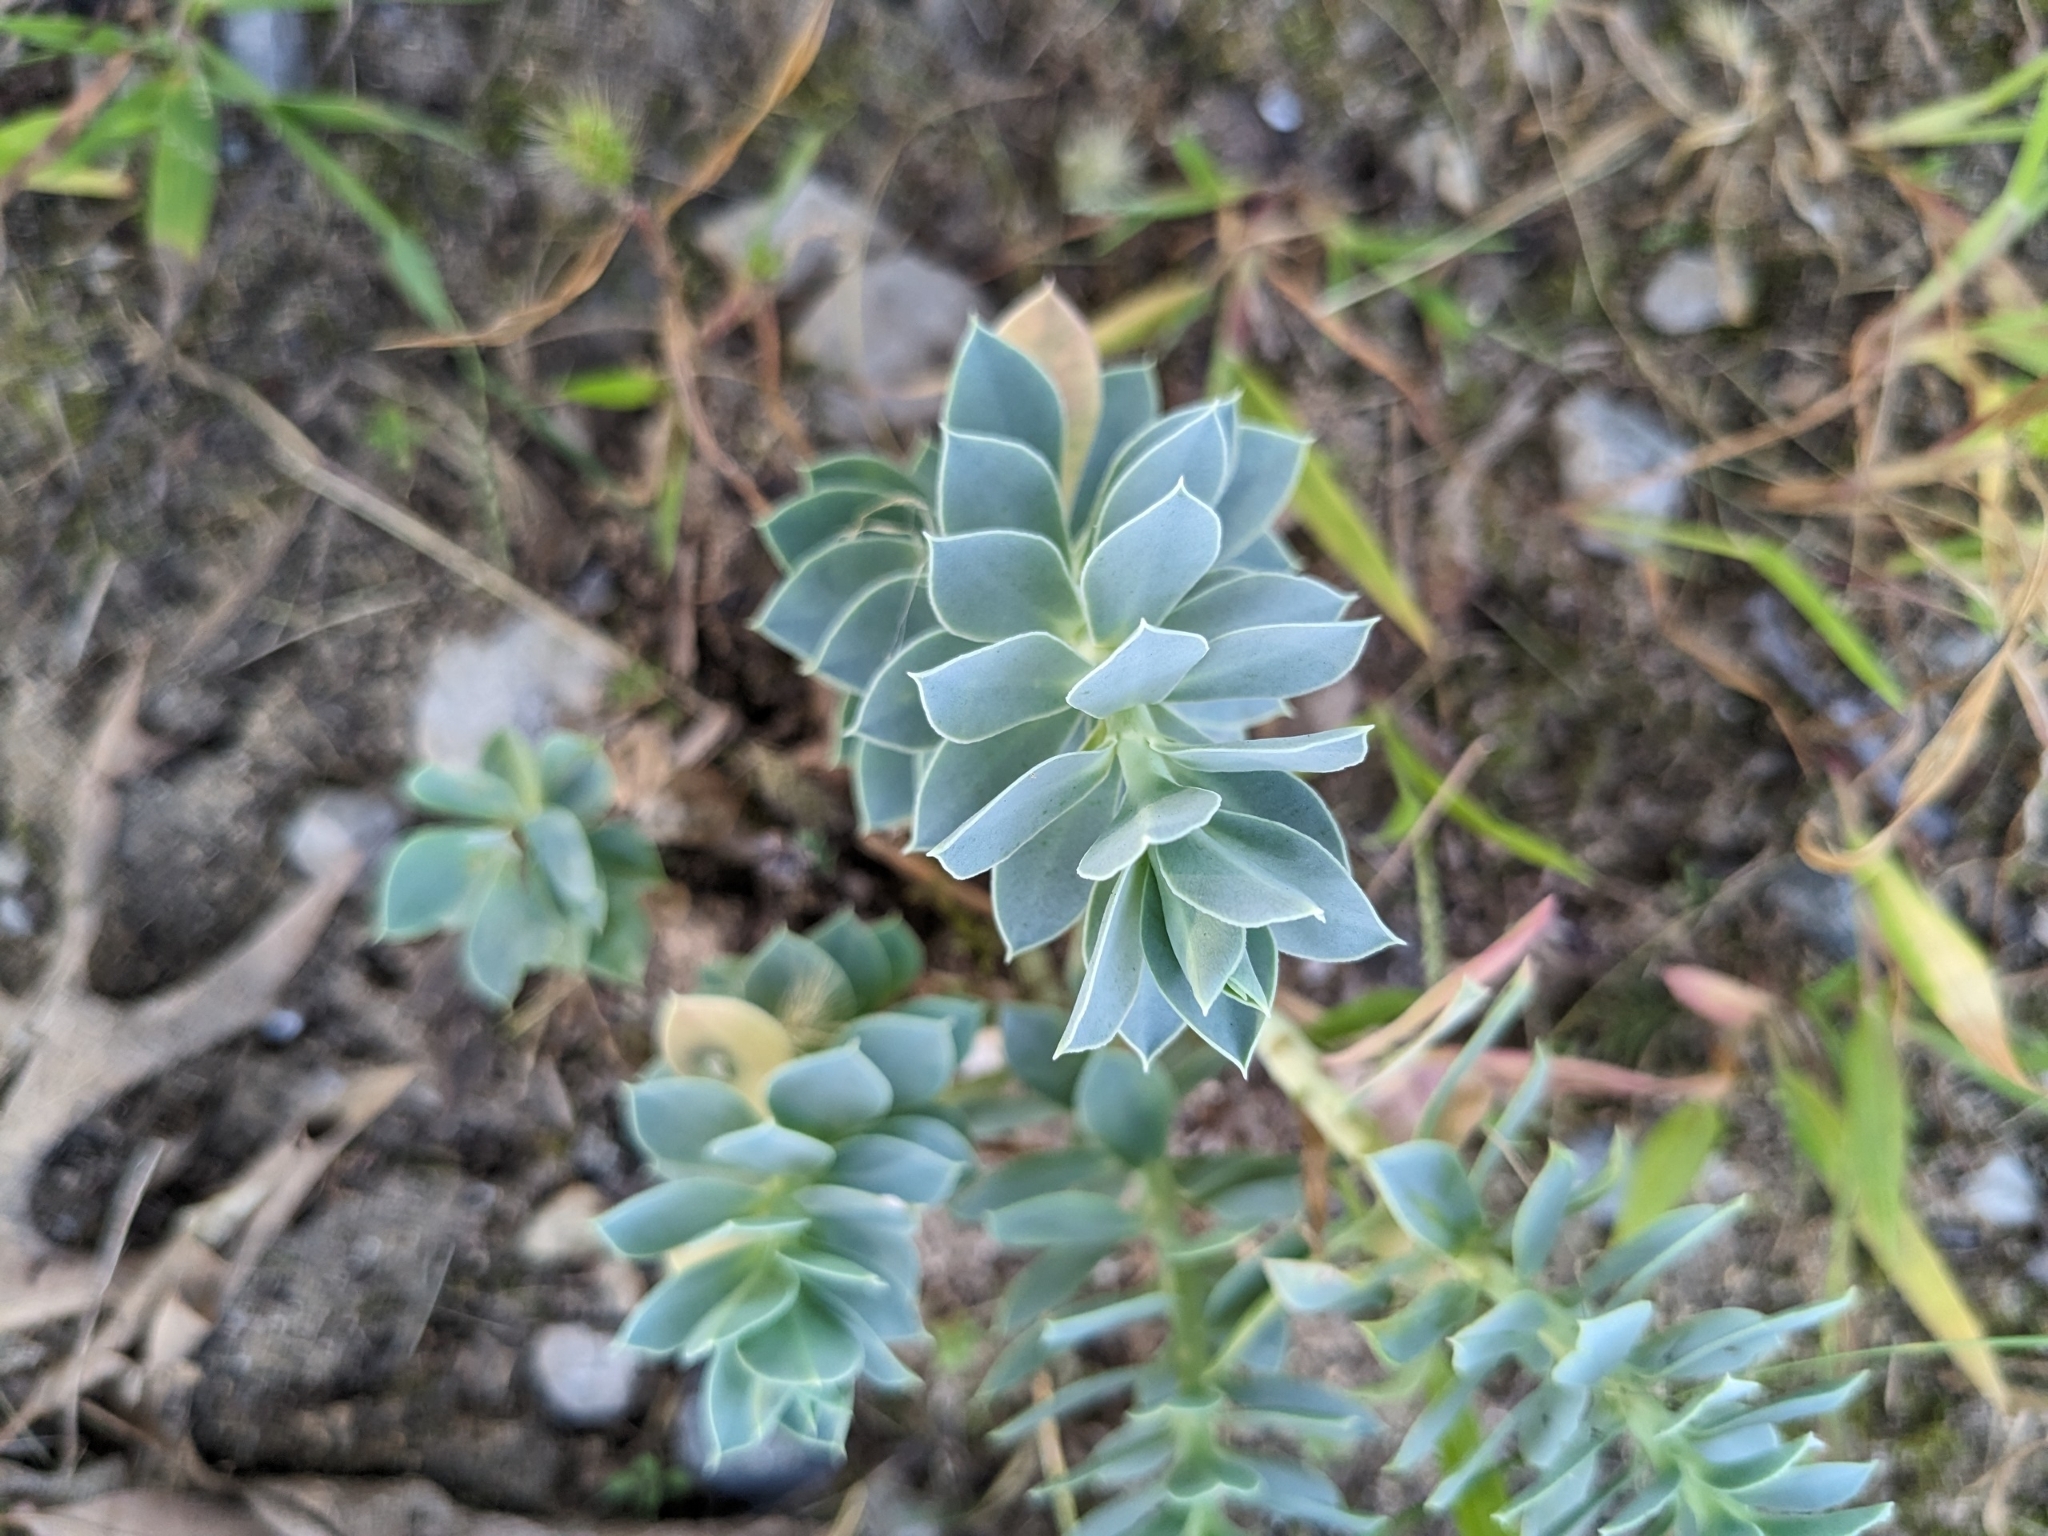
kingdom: Plantae
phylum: Tracheophyta
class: Magnoliopsida
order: Malpighiales
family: Euphorbiaceae
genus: Euphorbia
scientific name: Euphorbia myrsinites
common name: Myrtle spurge
